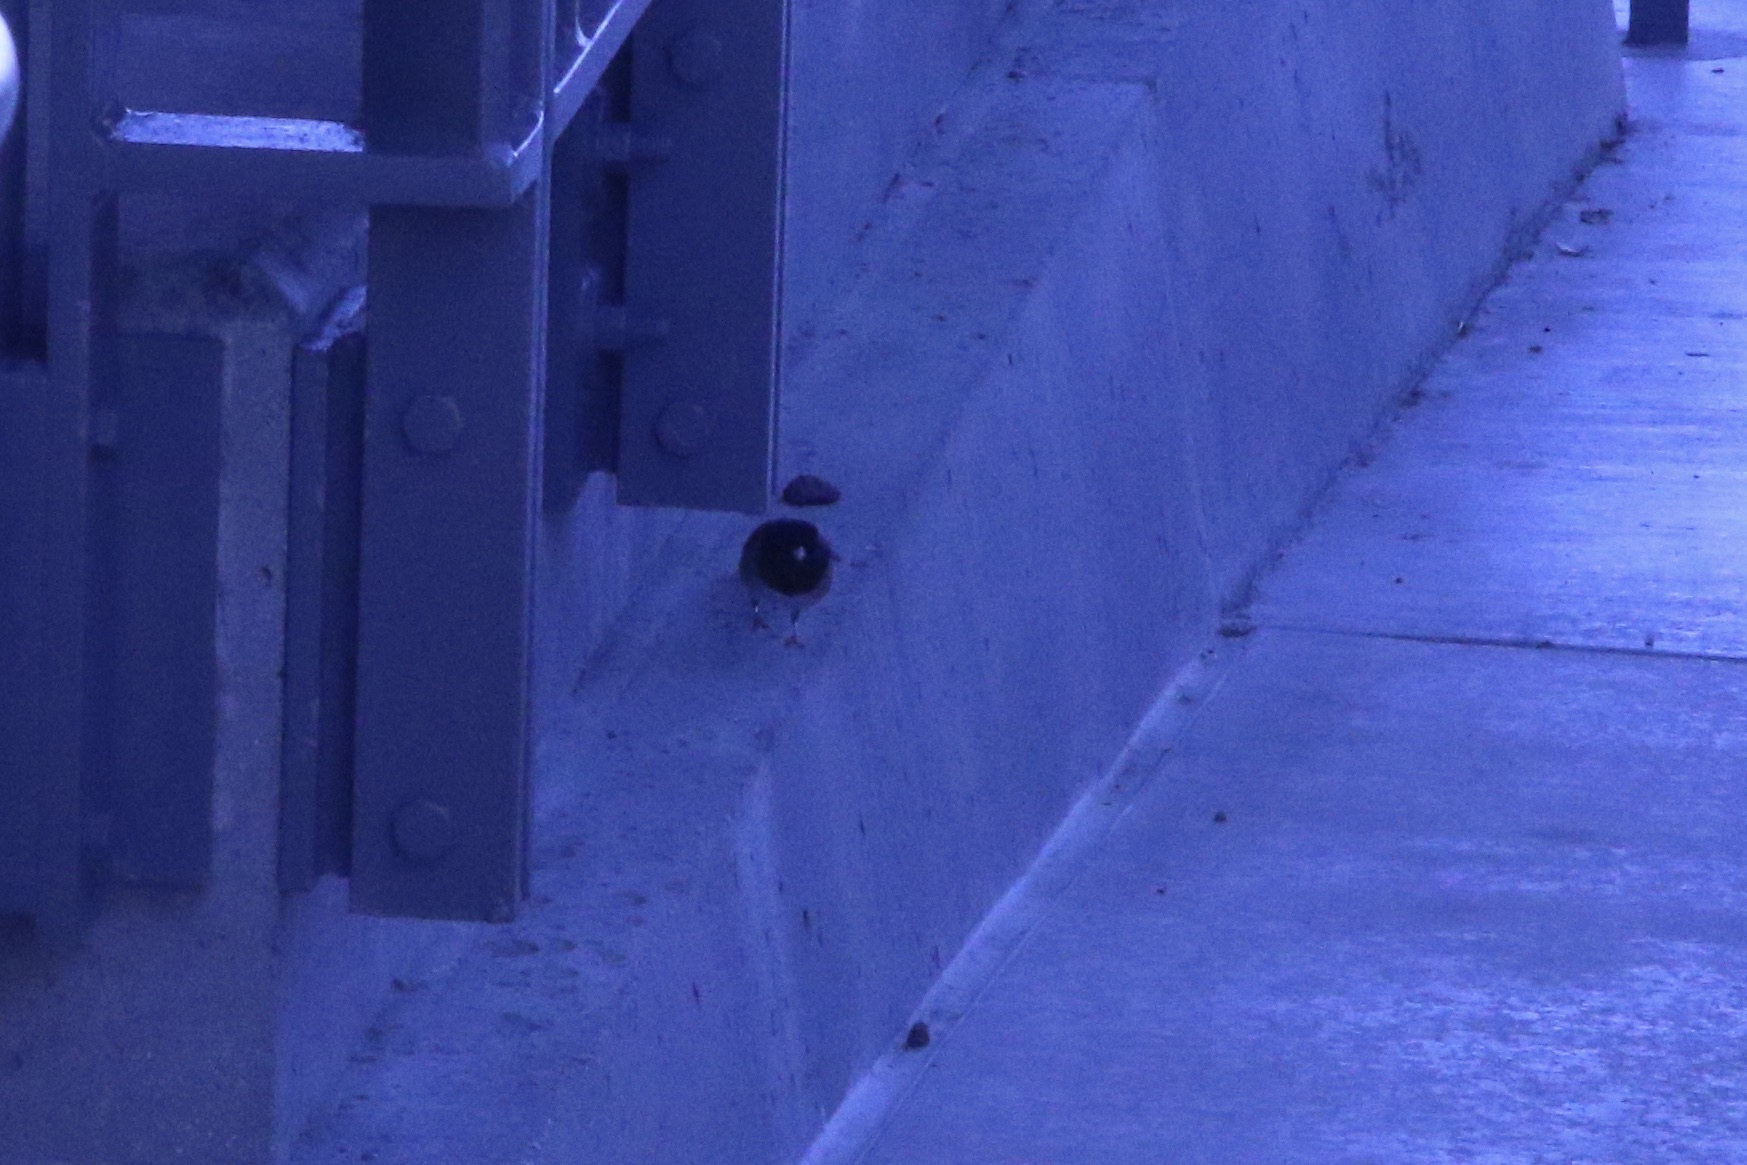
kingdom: Animalia
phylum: Chordata
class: Aves
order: Passeriformes
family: Passerellidae
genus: Junco
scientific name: Junco hyemalis
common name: Dark-eyed junco
